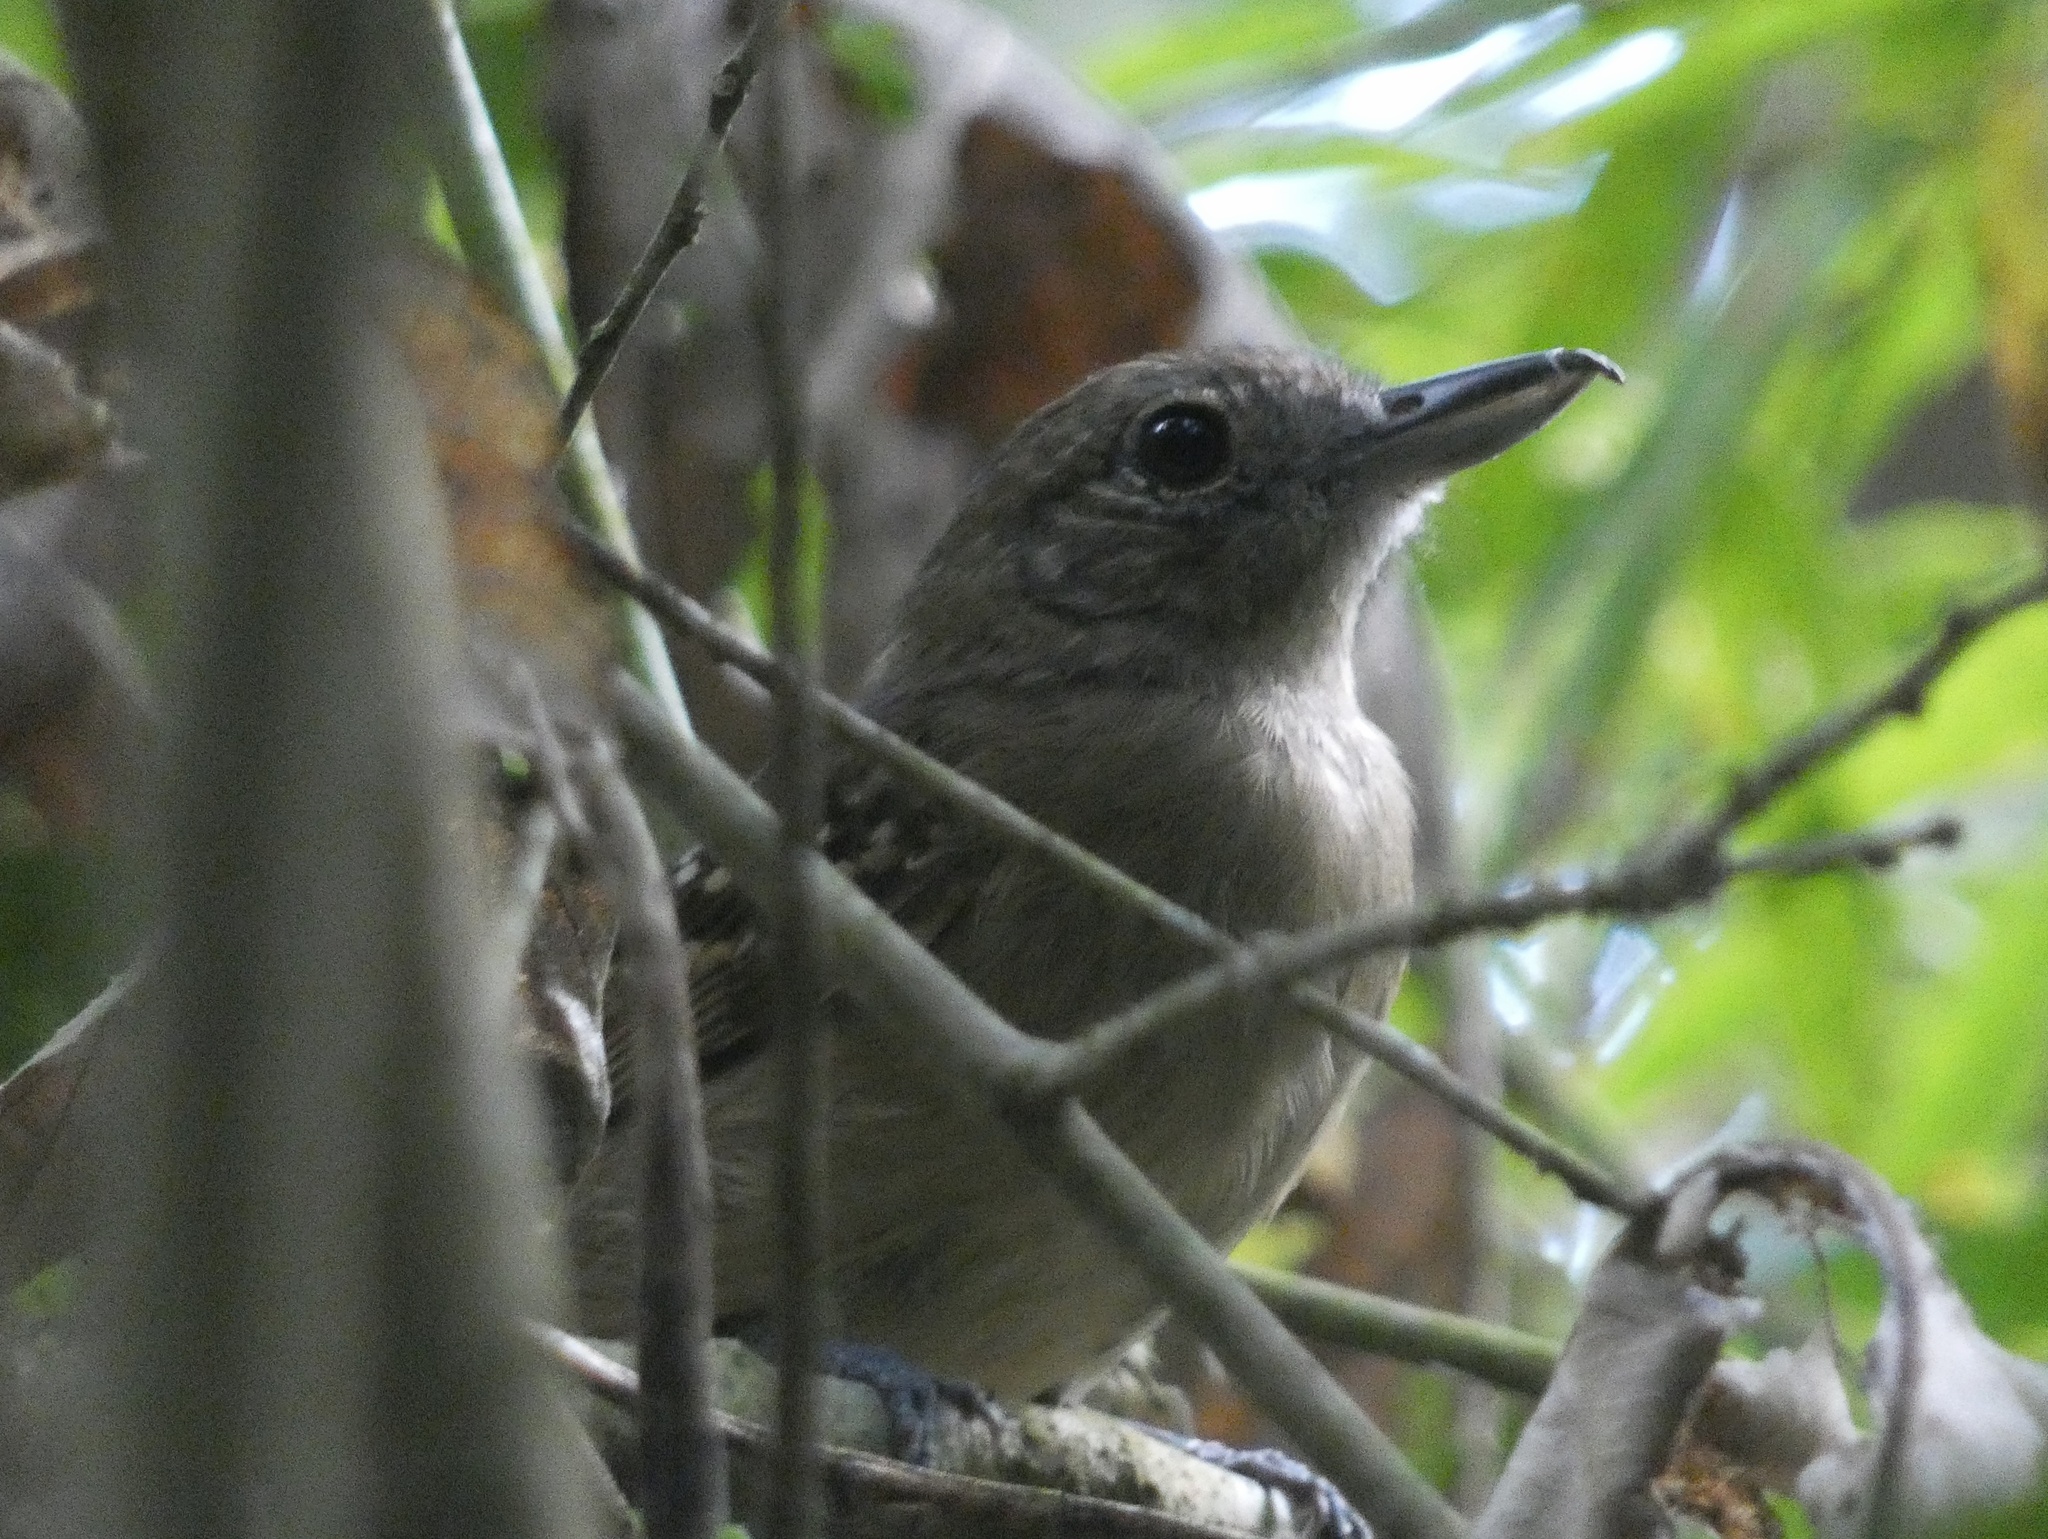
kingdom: Animalia
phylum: Chordata
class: Aves
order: Passeriformes
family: Thamnophilidae
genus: Thamnophilus
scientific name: Thamnophilus atrinucha
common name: Black-crowned antshrike
